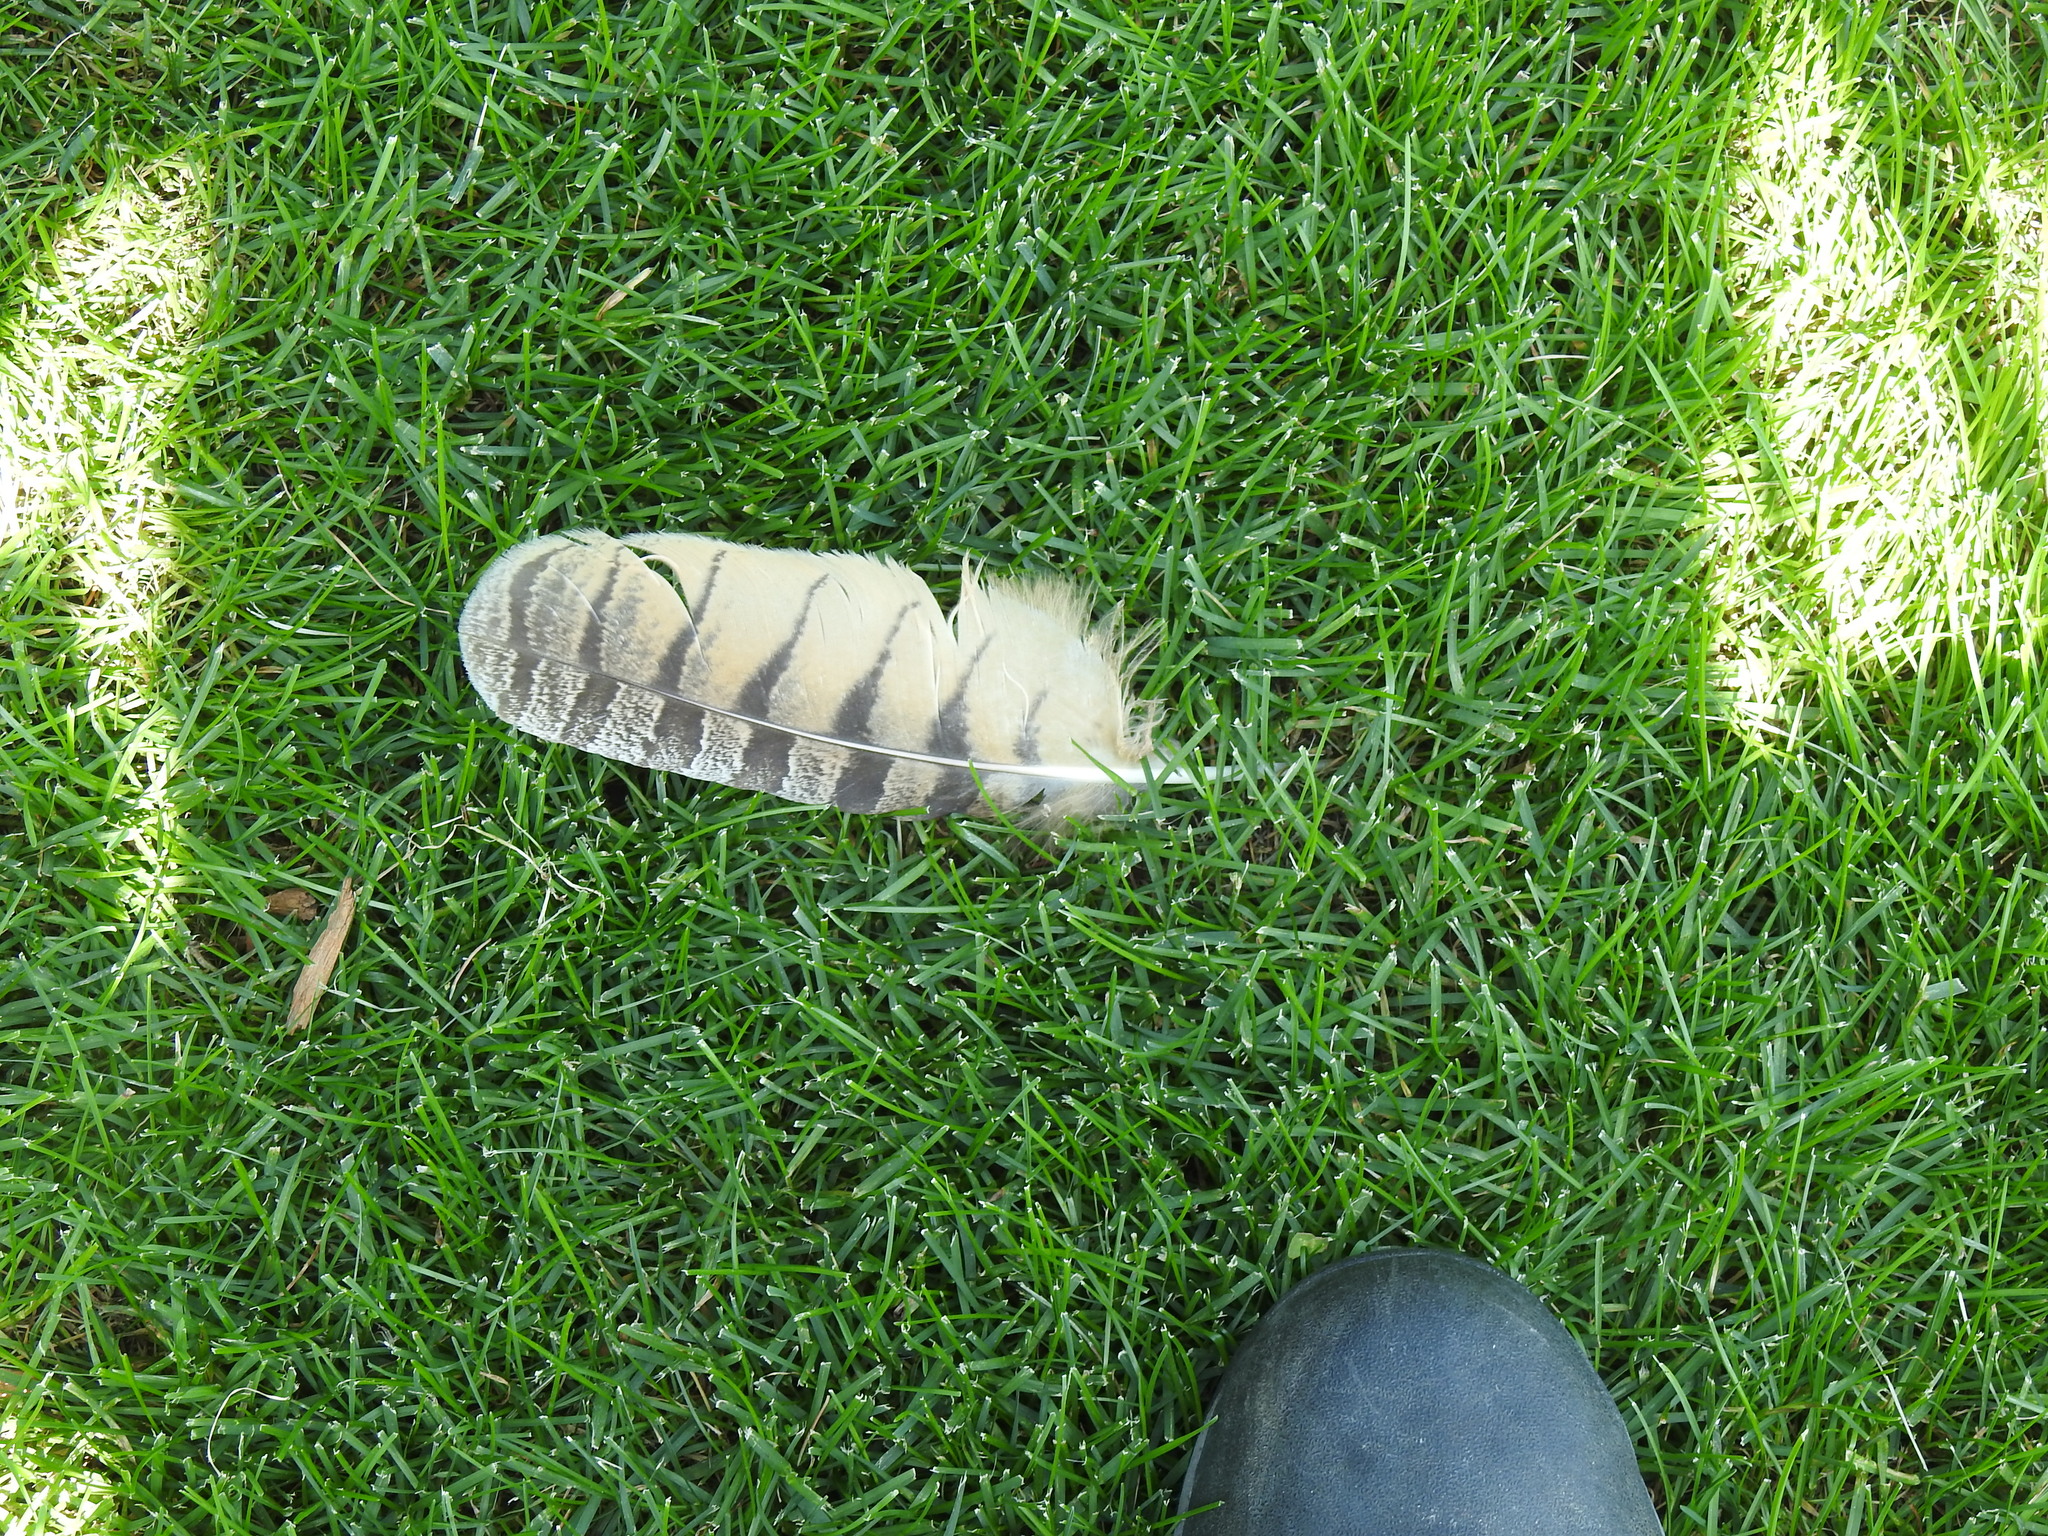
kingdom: Animalia
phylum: Chordata
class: Aves
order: Strigiformes
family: Strigidae
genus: Bubo
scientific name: Bubo virginianus
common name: Great horned owl
